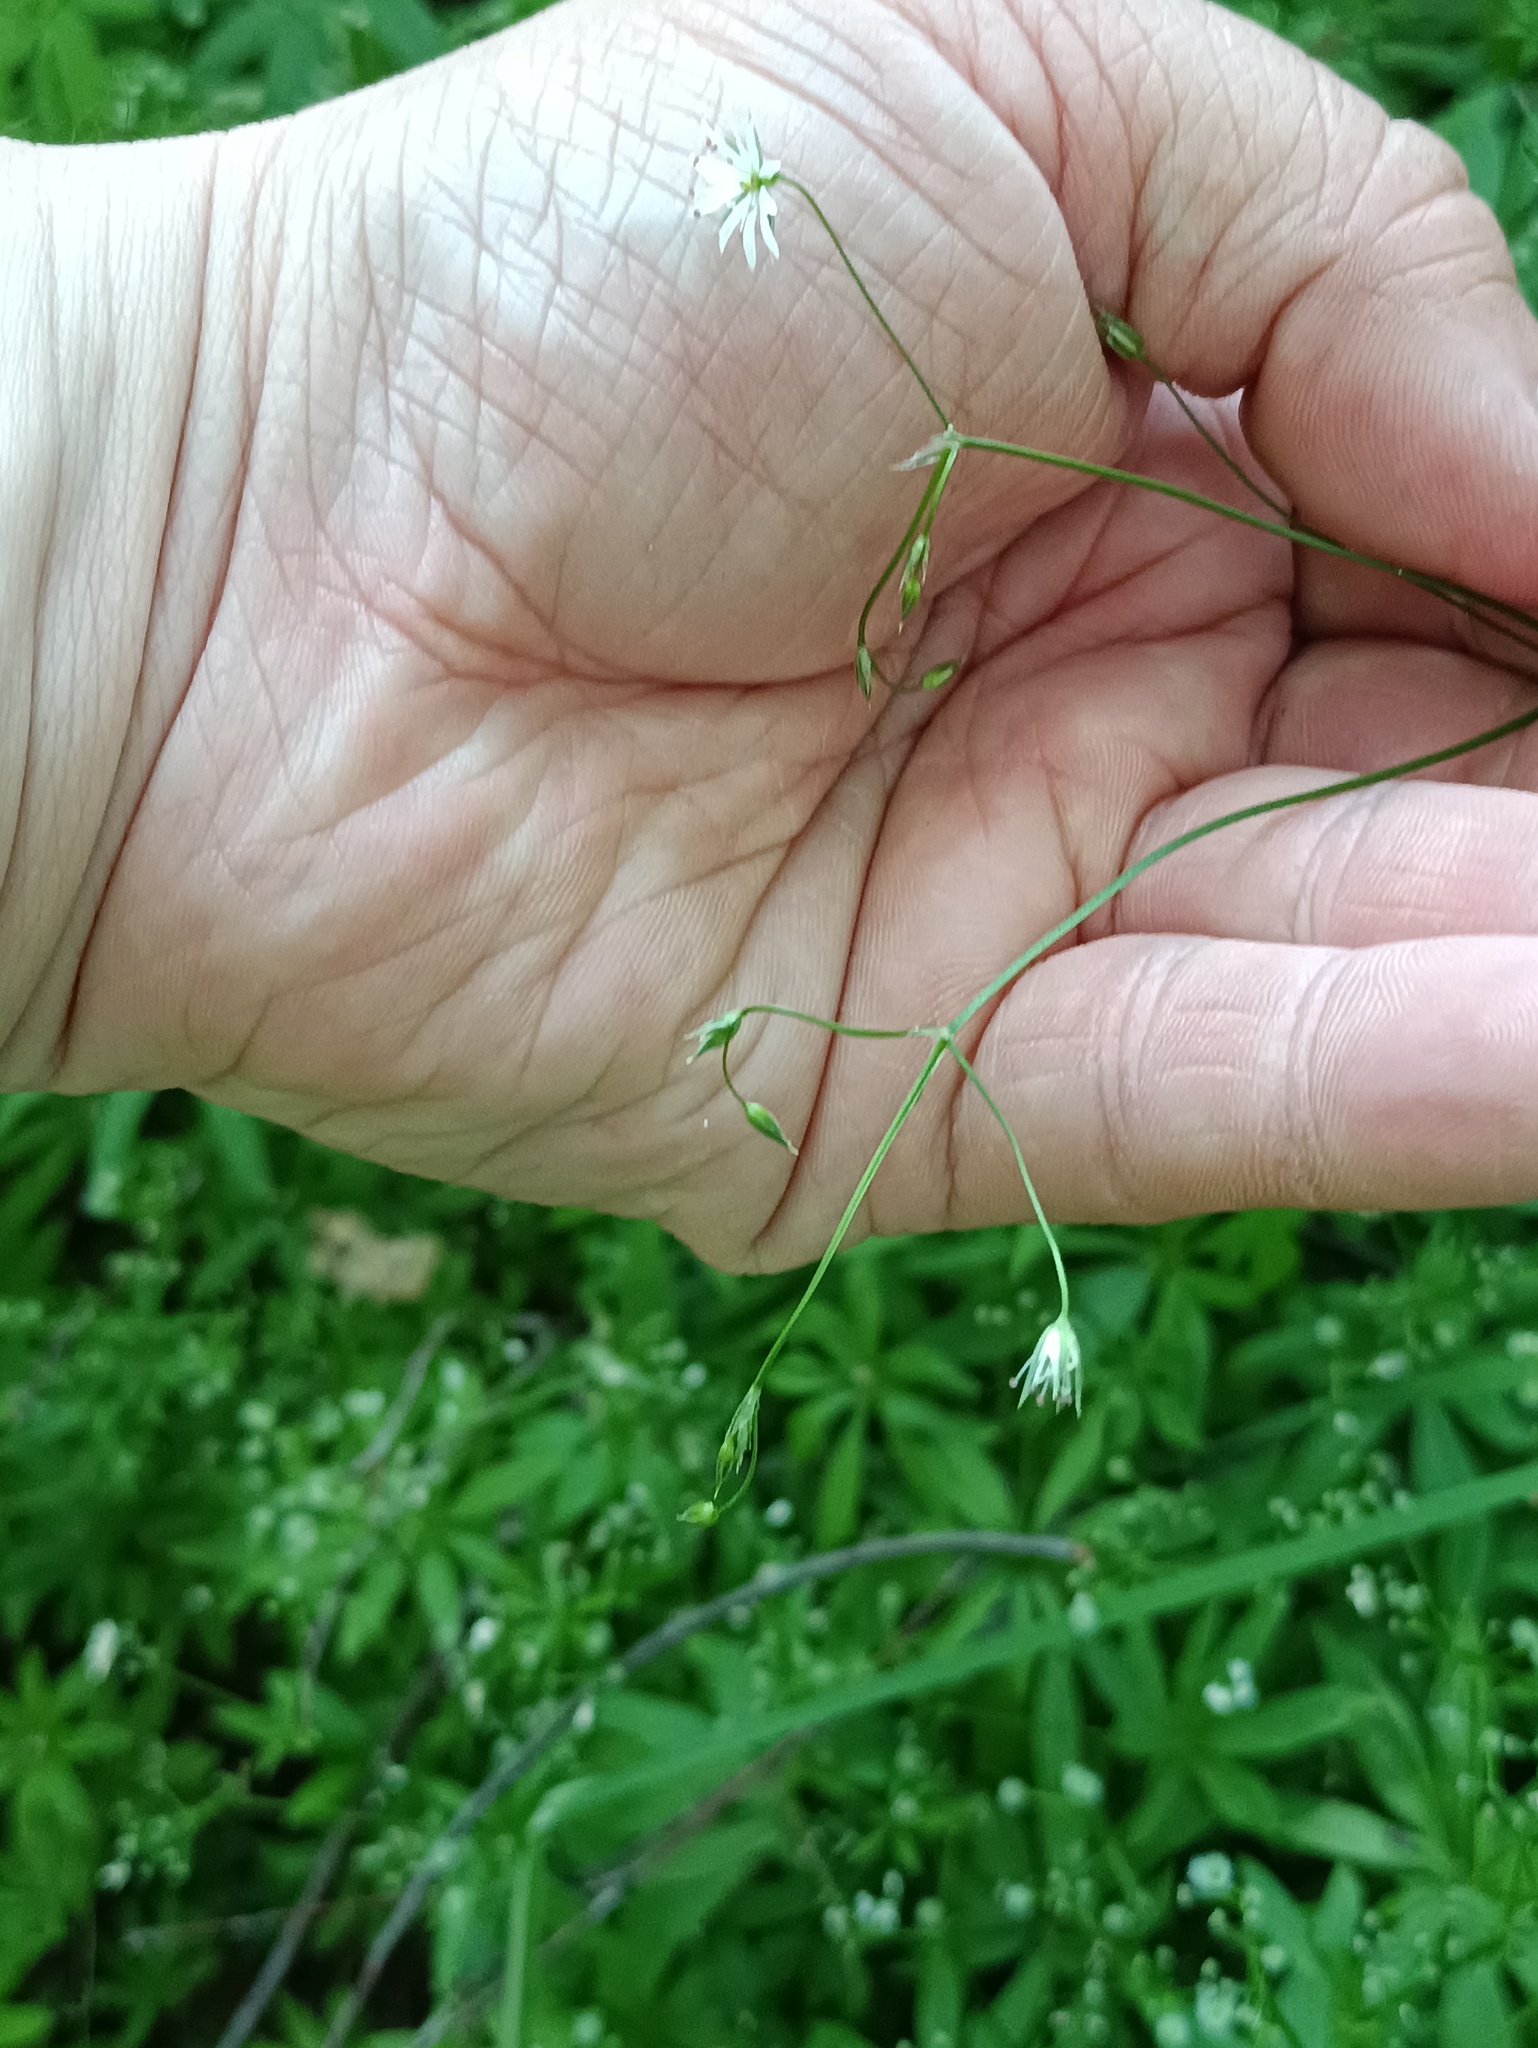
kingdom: Plantae
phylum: Tracheophyta
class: Magnoliopsida
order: Caryophyllales
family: Caryophyllaceae
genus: Stellaria
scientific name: Stellaria graminea
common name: Grass-like starwort
